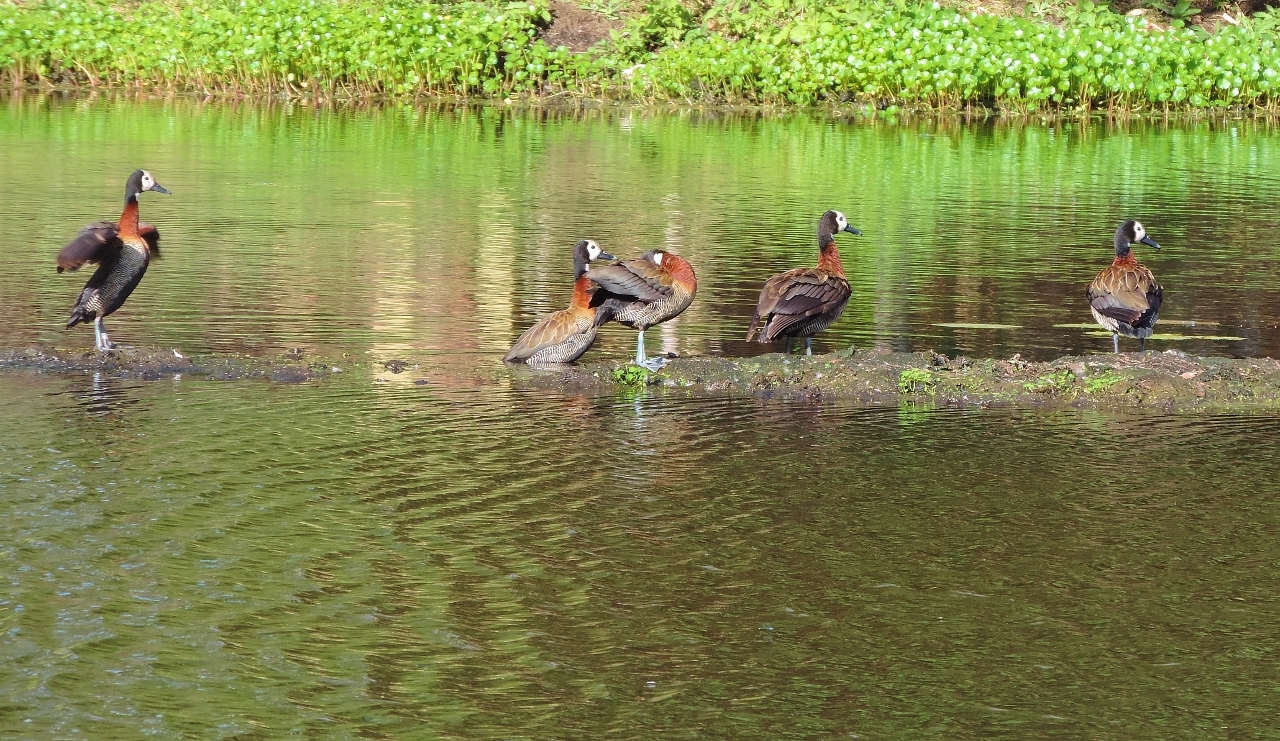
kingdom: Animalia
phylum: Chordata
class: Aves
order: Anseriformes
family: Anatidae
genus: Dendrocygna
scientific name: Dendrocygna viduata
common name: White-faced whistling duck
